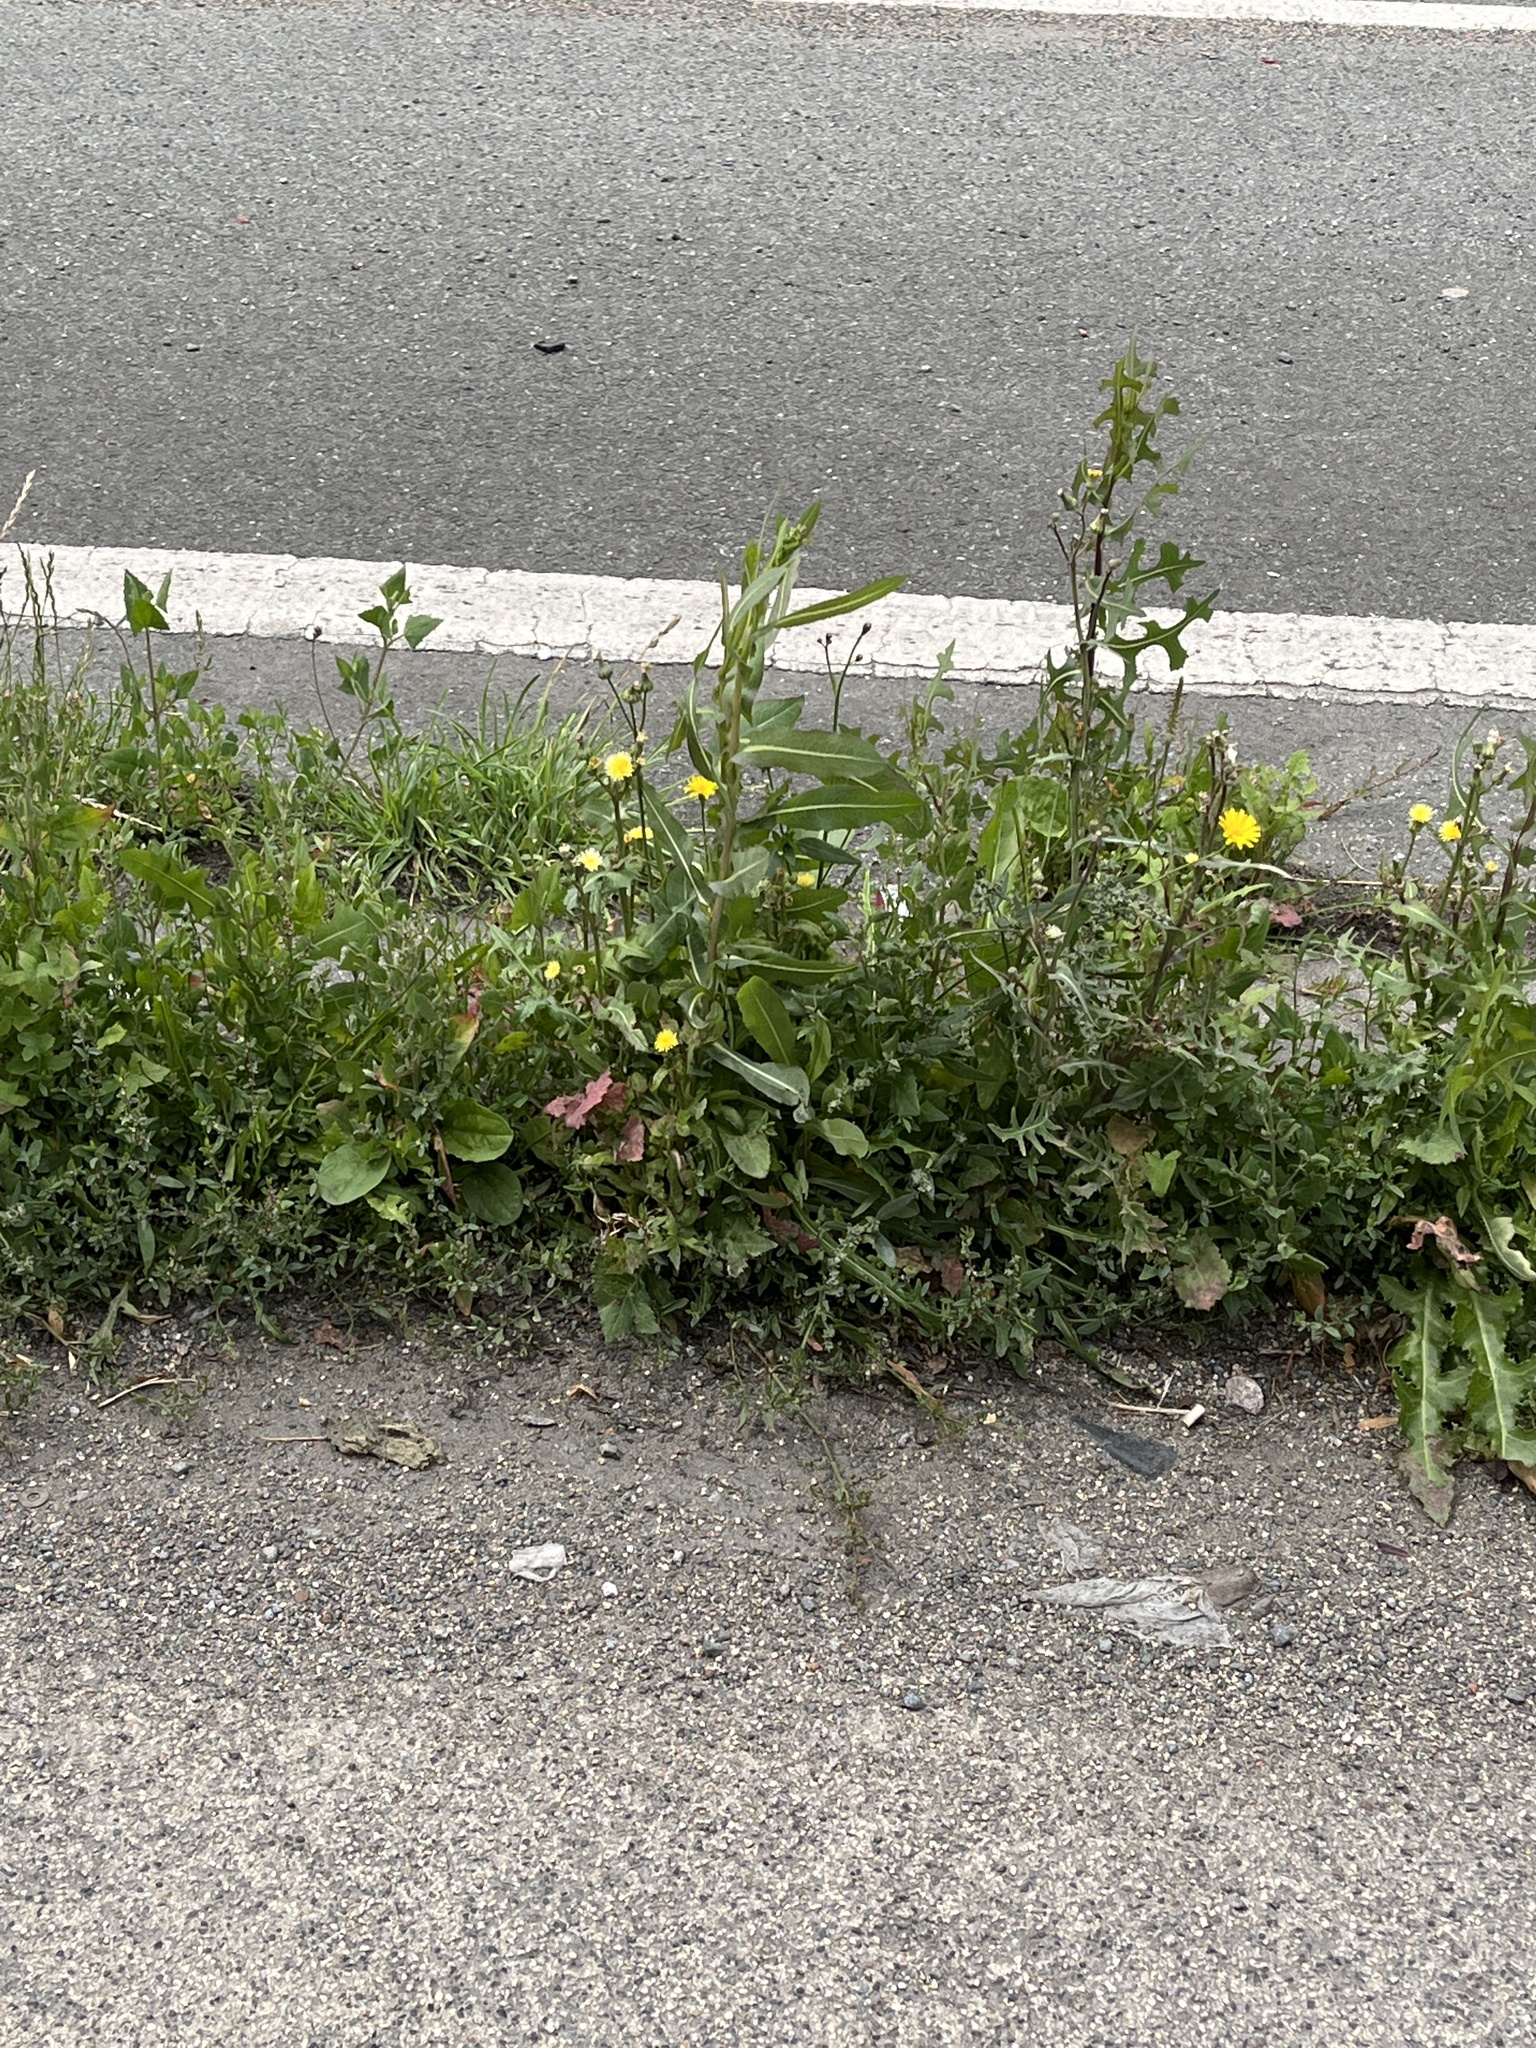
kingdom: Plantae
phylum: Tracheophyta
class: Magnoliopsida
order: Asterales
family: Asteraceae
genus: Lactuca
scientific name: Lactuca serriola
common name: Prickly lettuce
